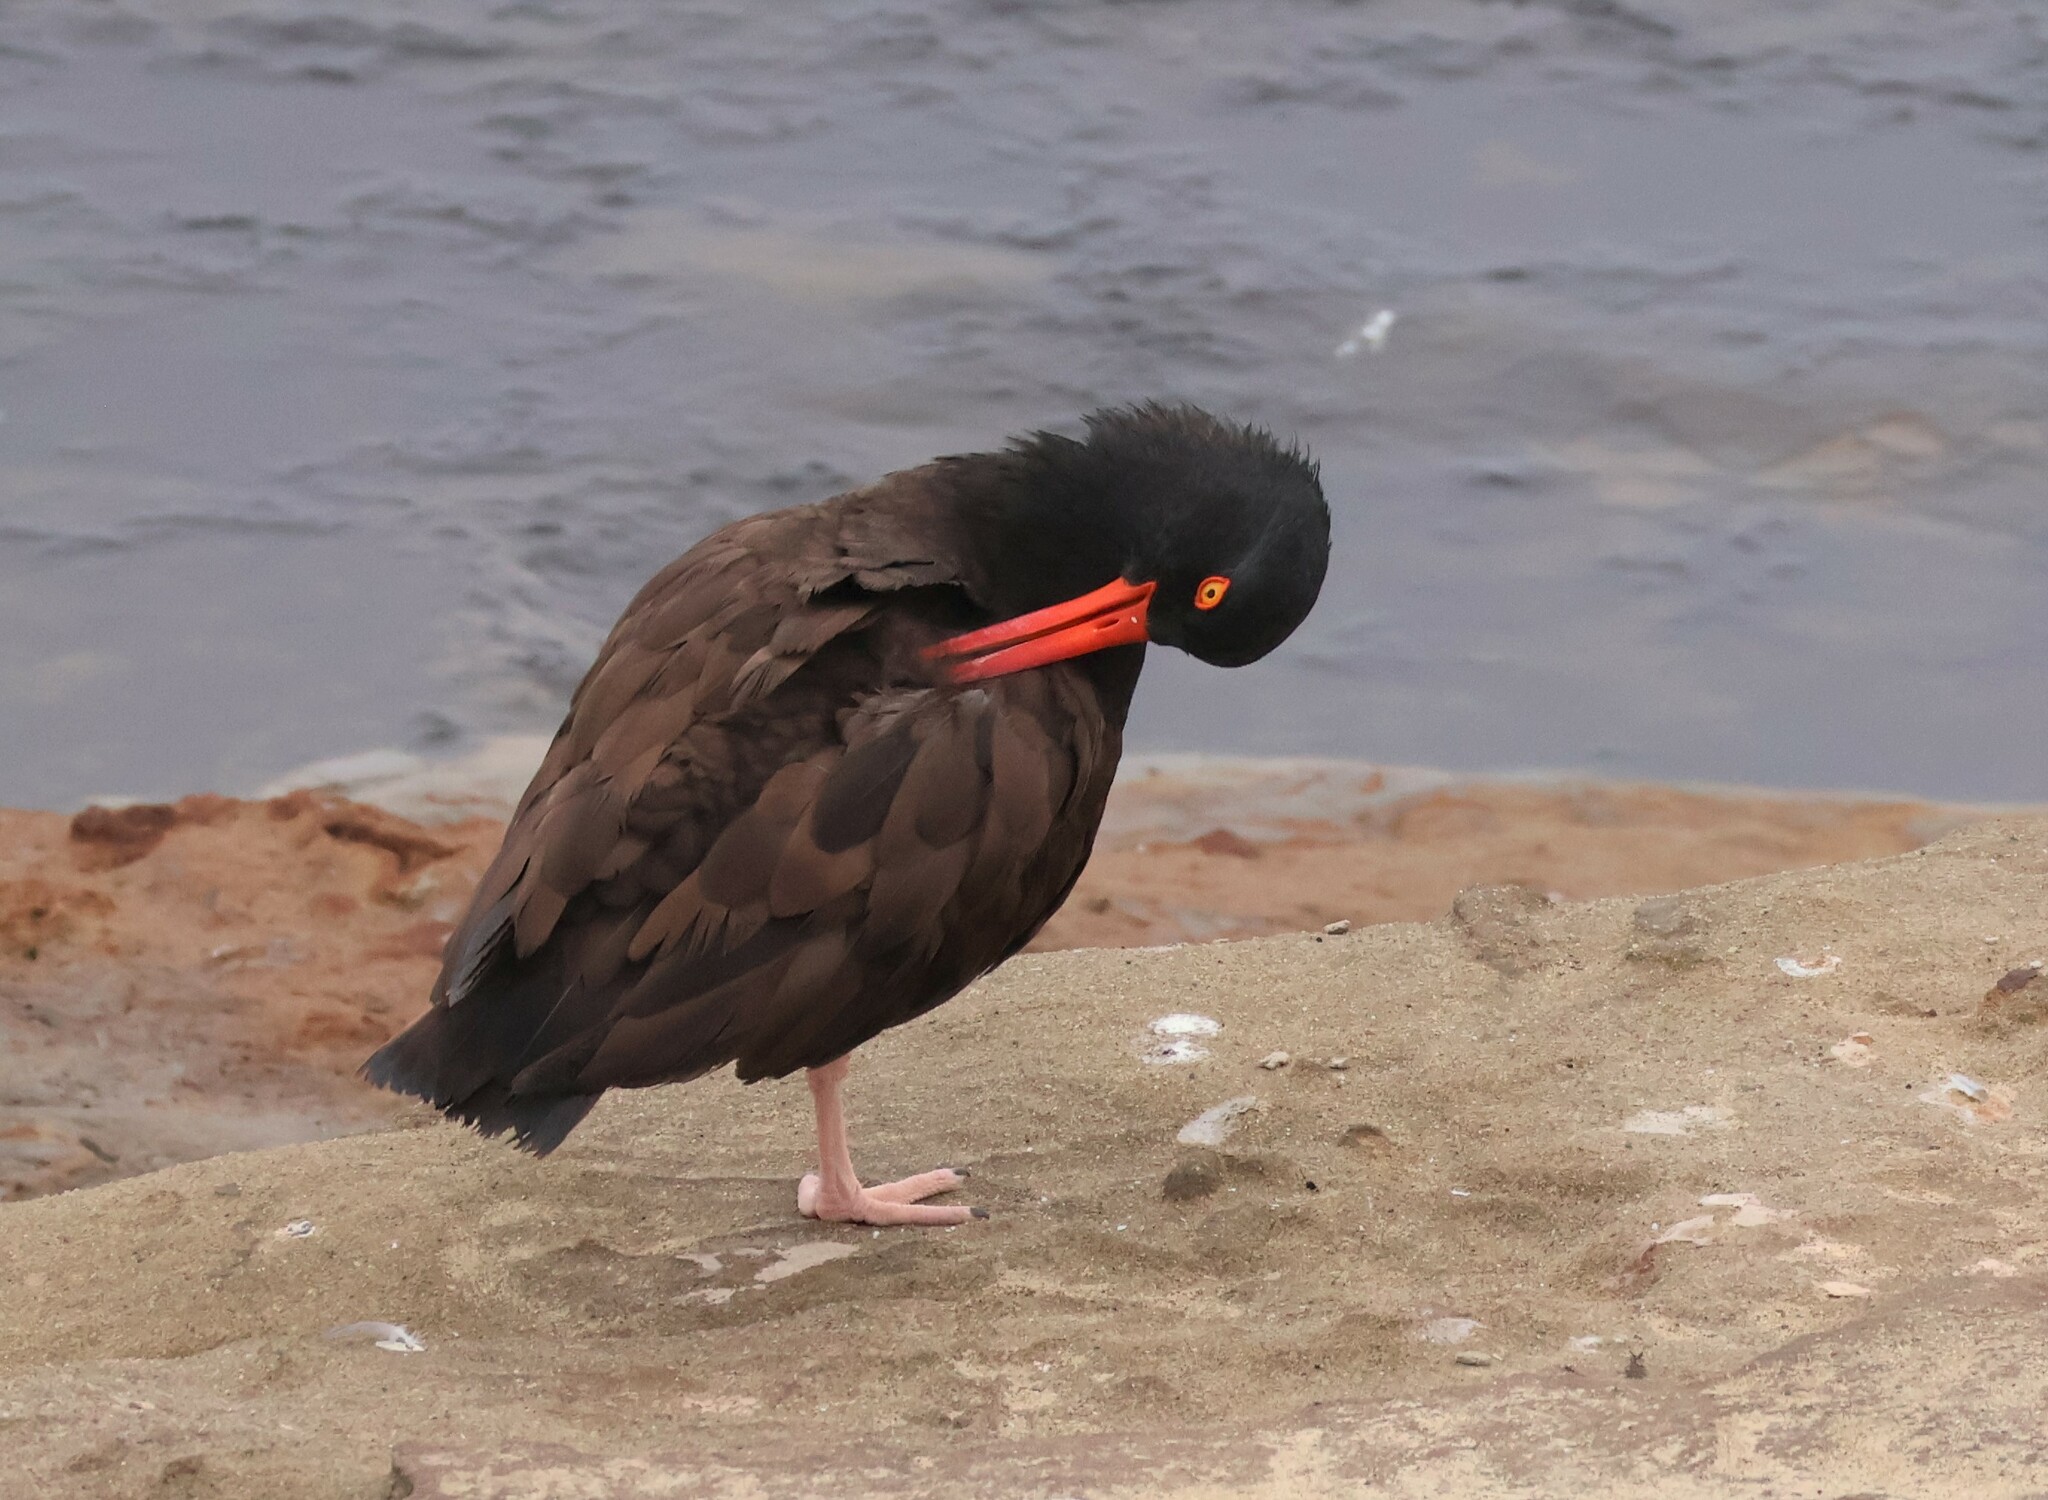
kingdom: Animalia
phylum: Chordata
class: Aves
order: Charadriiformes
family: Haematopodidae
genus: Haematopus
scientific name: Haematopus bachmani
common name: Black oystercatcher
